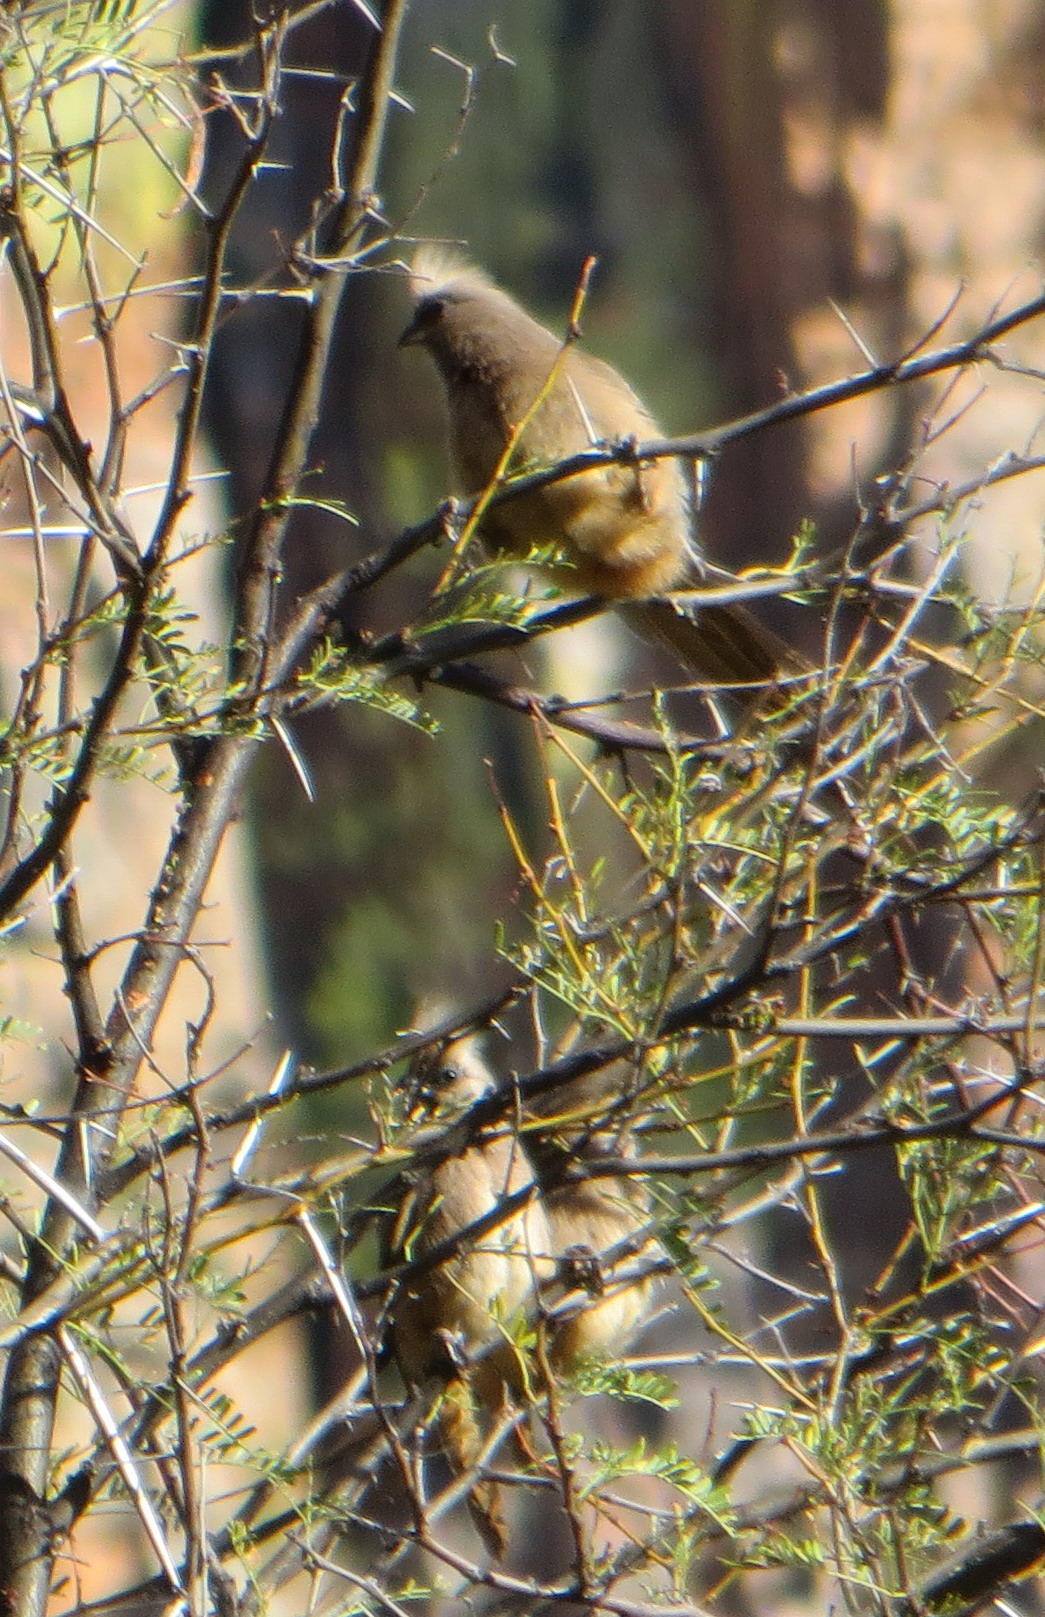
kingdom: Animalia
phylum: Chordata
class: Aves
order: Coliiformes
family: Coliidae
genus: Colius
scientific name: Colius striatus
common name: Speckled mousebird
